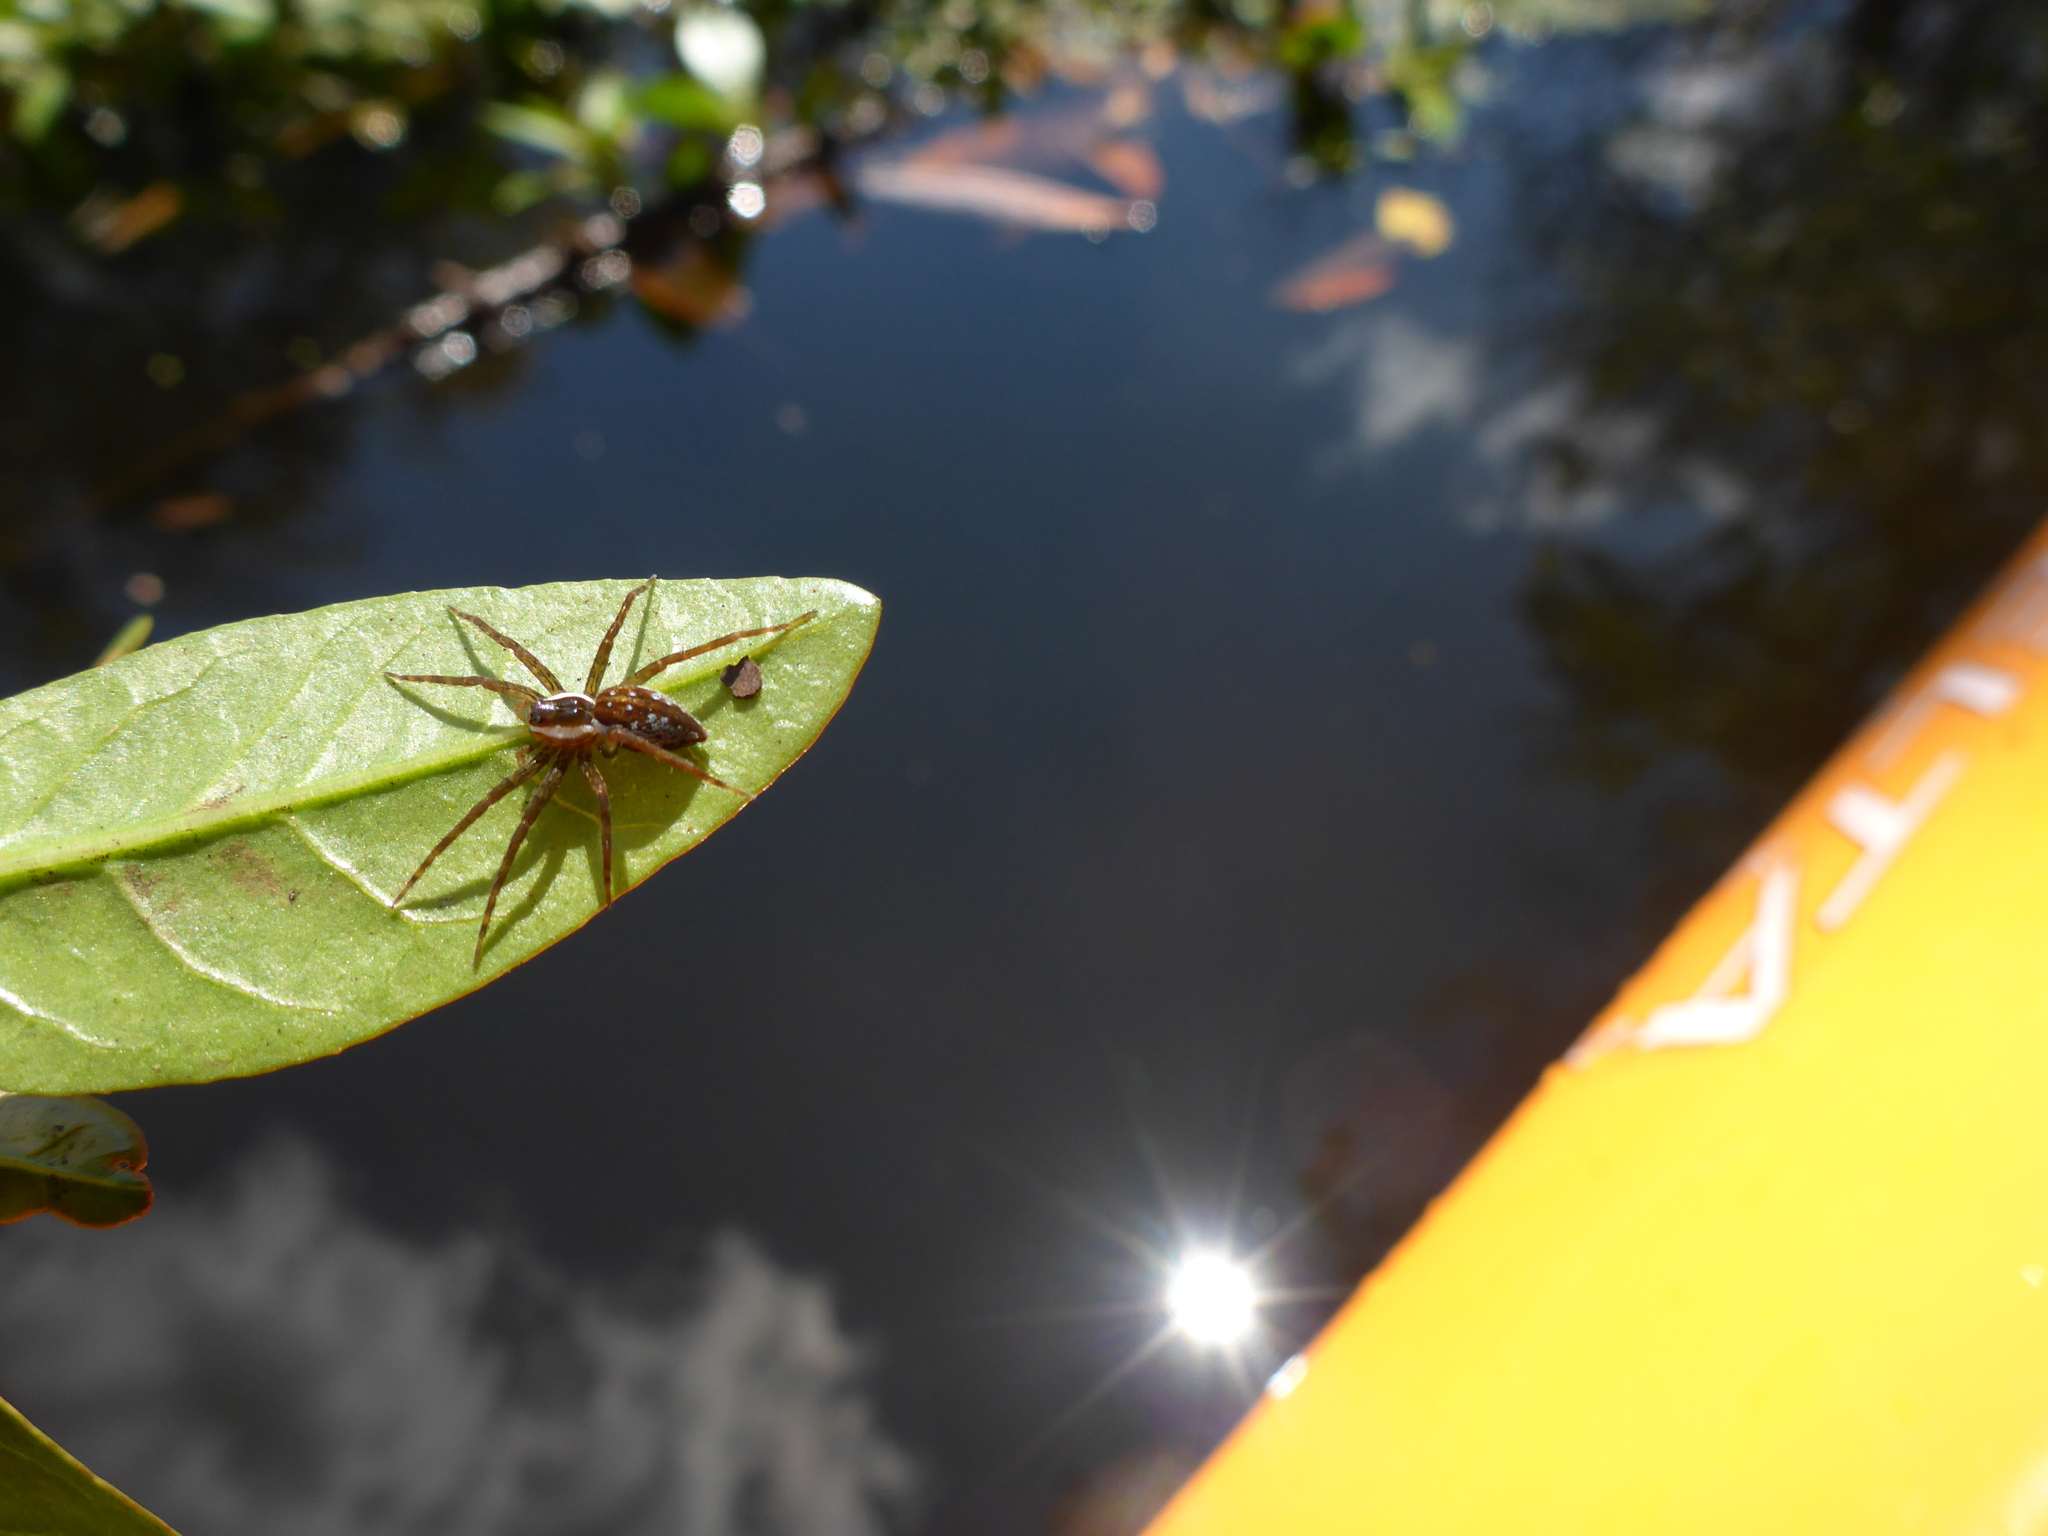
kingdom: Animalia
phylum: Arthropoda
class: Arachnida
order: Araneae
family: Pisauridae
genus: Dolomedes
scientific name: Dolomedes triton
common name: Six-spotted fishing spider
